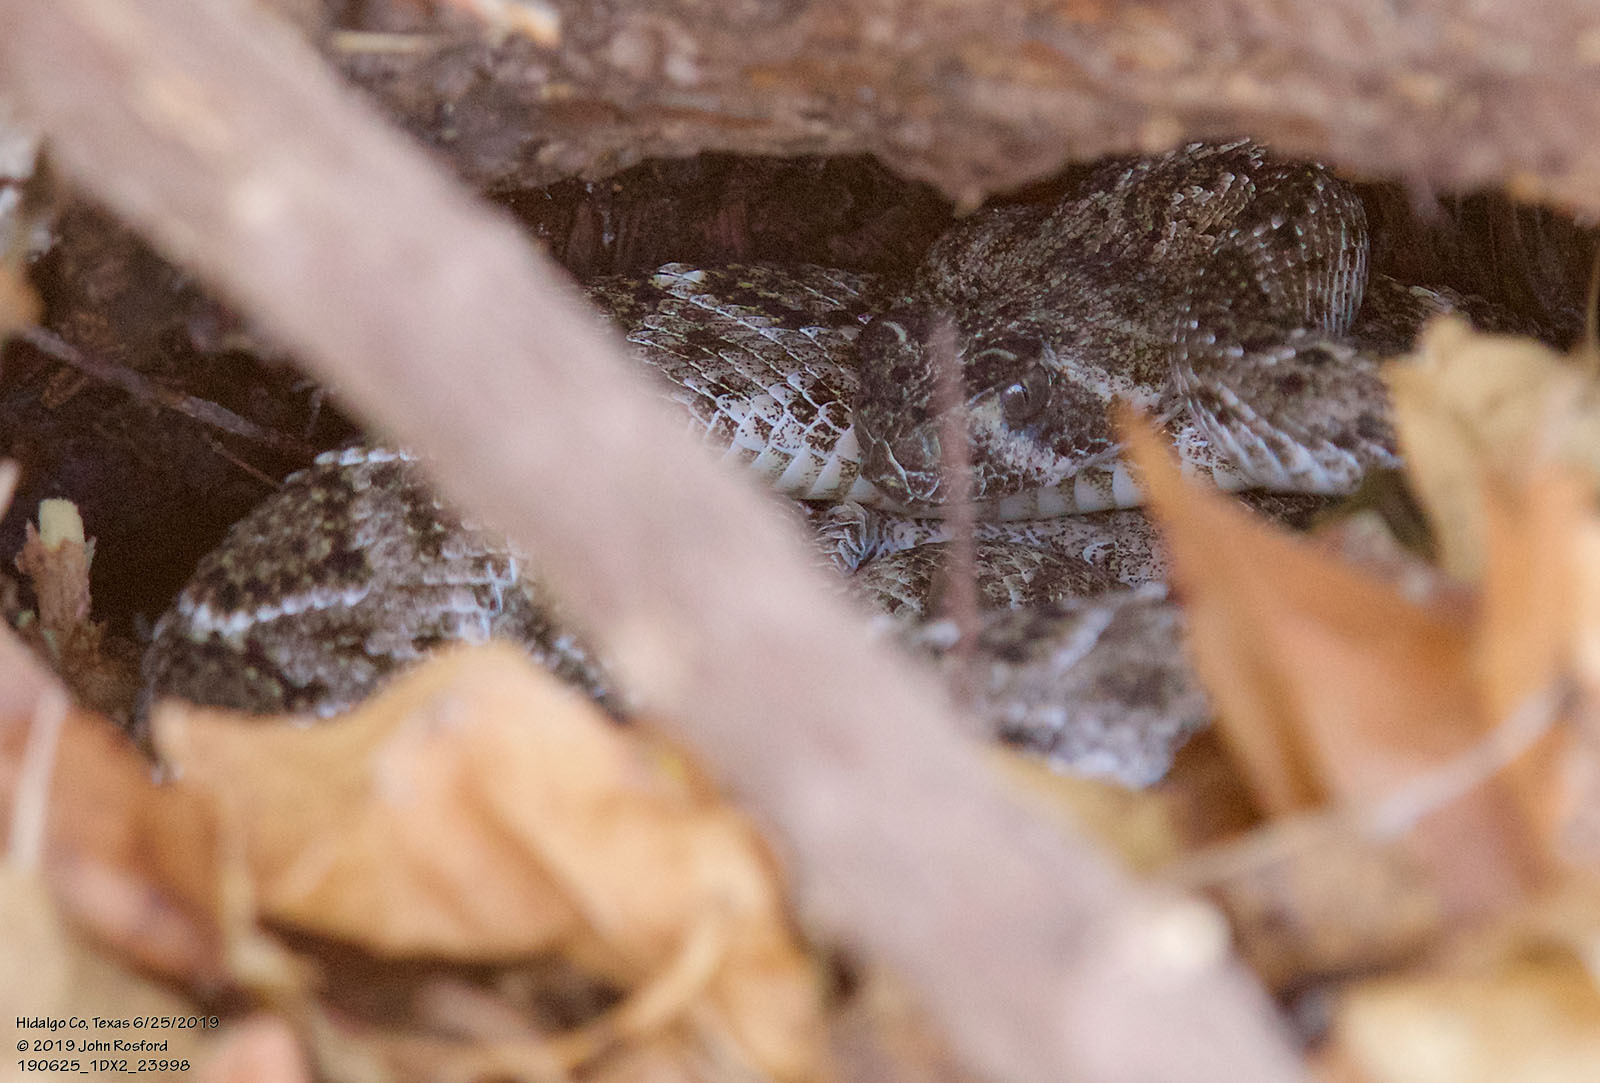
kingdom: Animalia
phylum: Chordata
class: Squamata
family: Viperidae
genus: Crotalus
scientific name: Crotalus atrox
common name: Western diamond-backed rattlesnake
